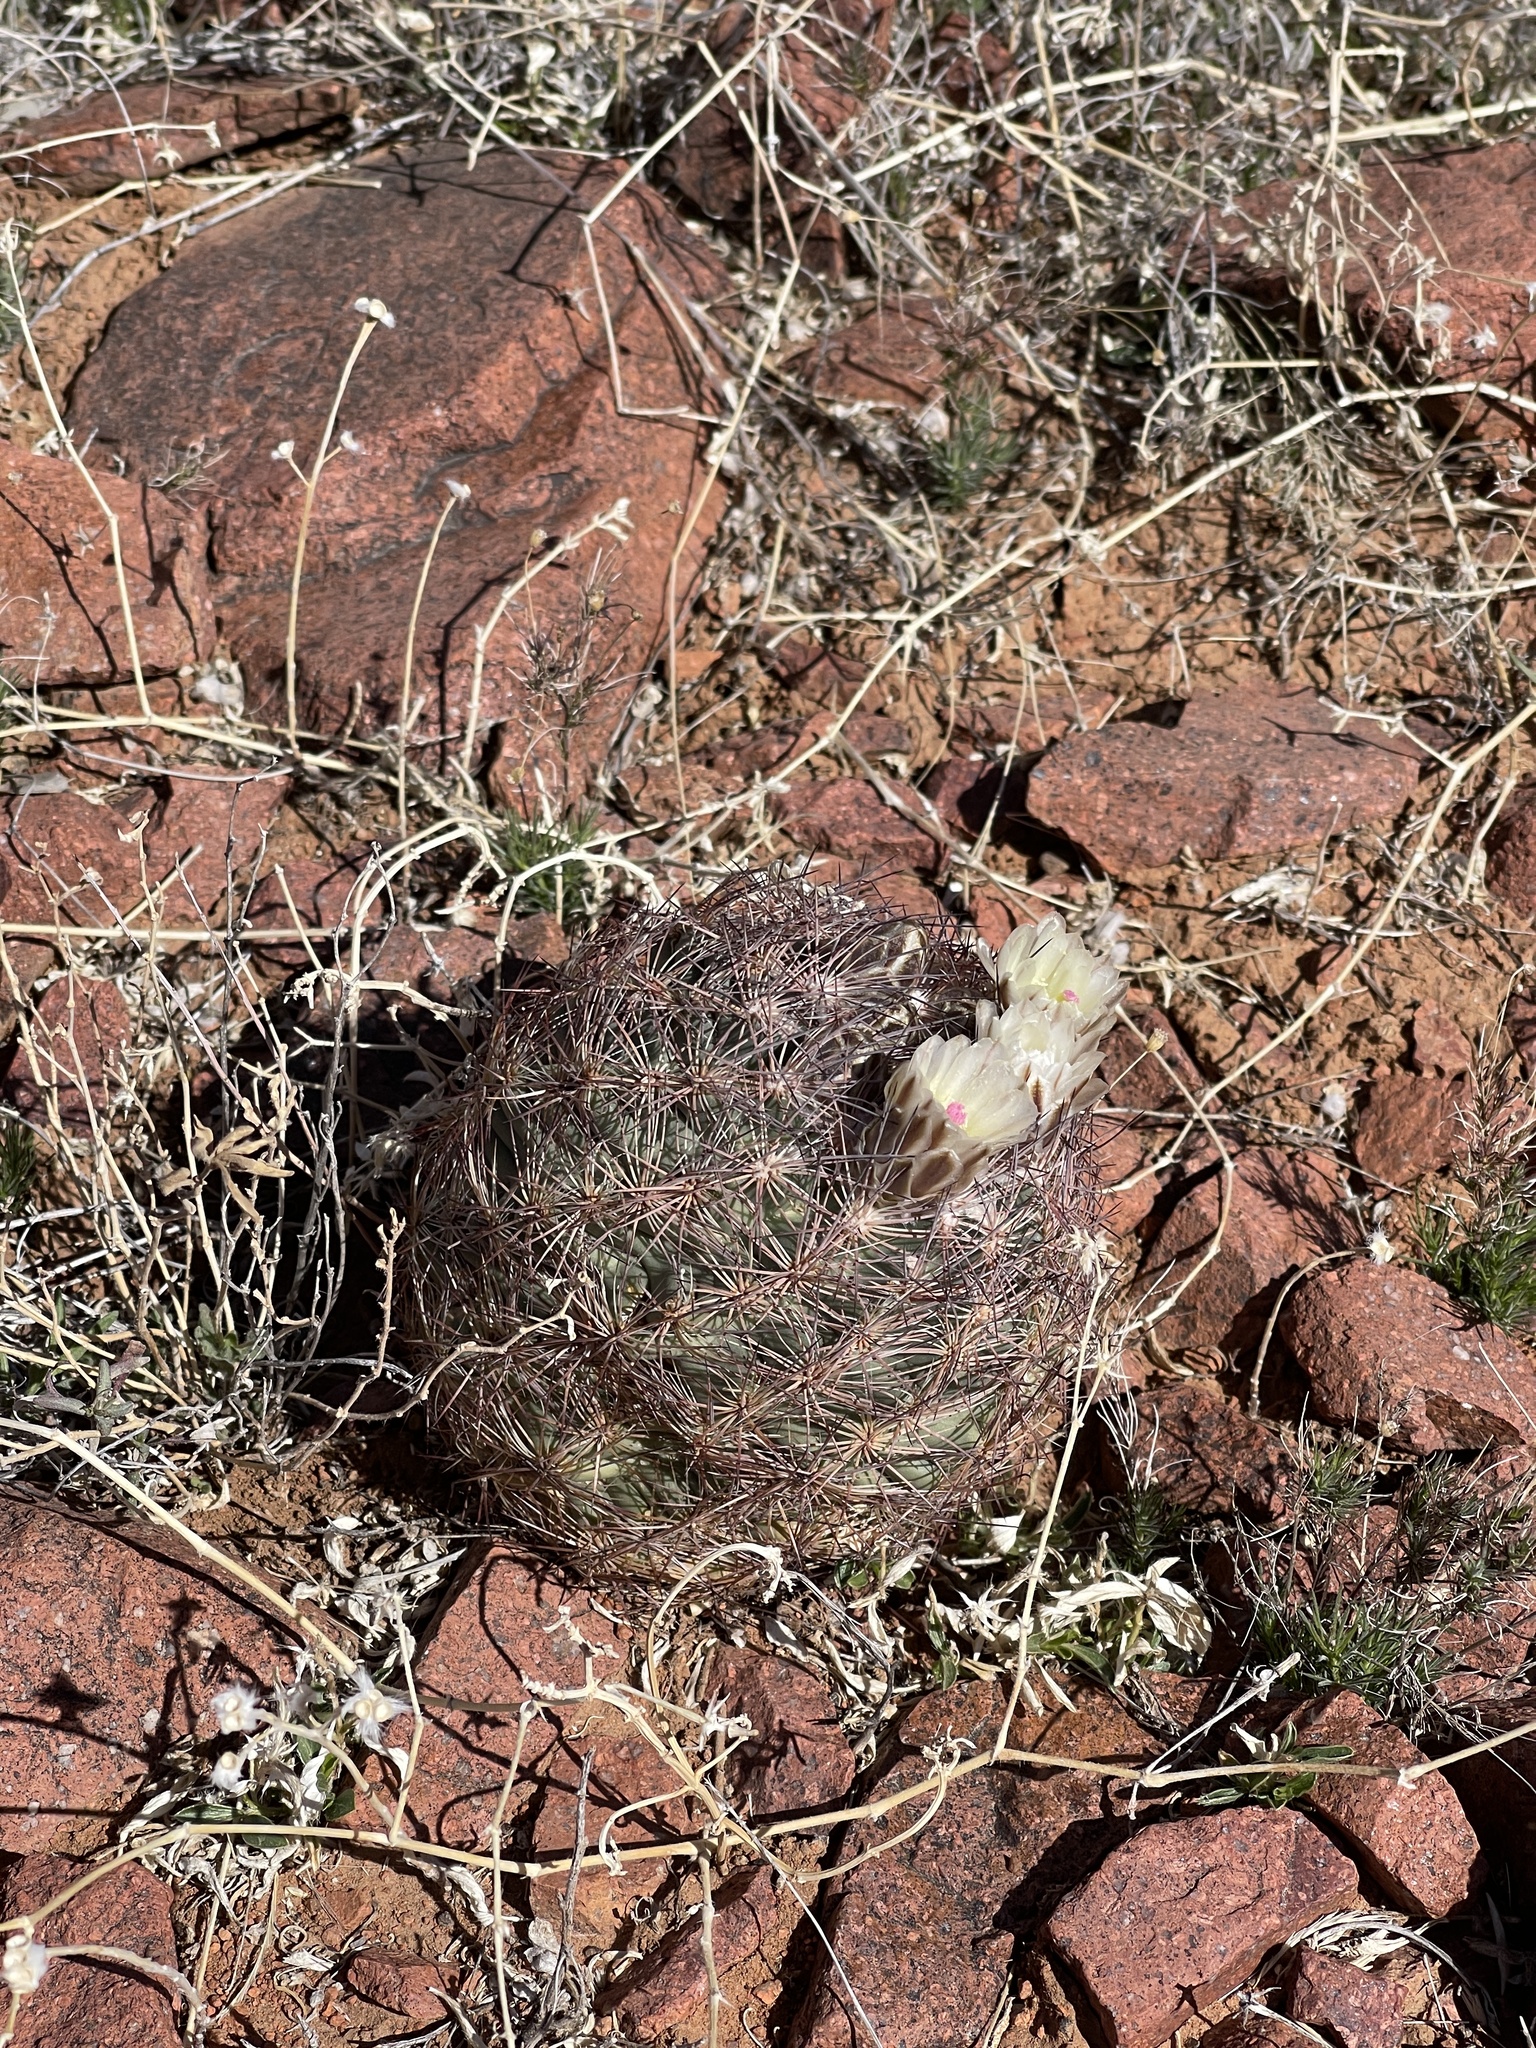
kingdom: Plantae
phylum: Tracheophyta
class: Magnoliopsida
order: Caryophyllales
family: Cactaceae
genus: Sclerocactus
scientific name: Sclerocactus intertextus
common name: White fish-hook cactus
